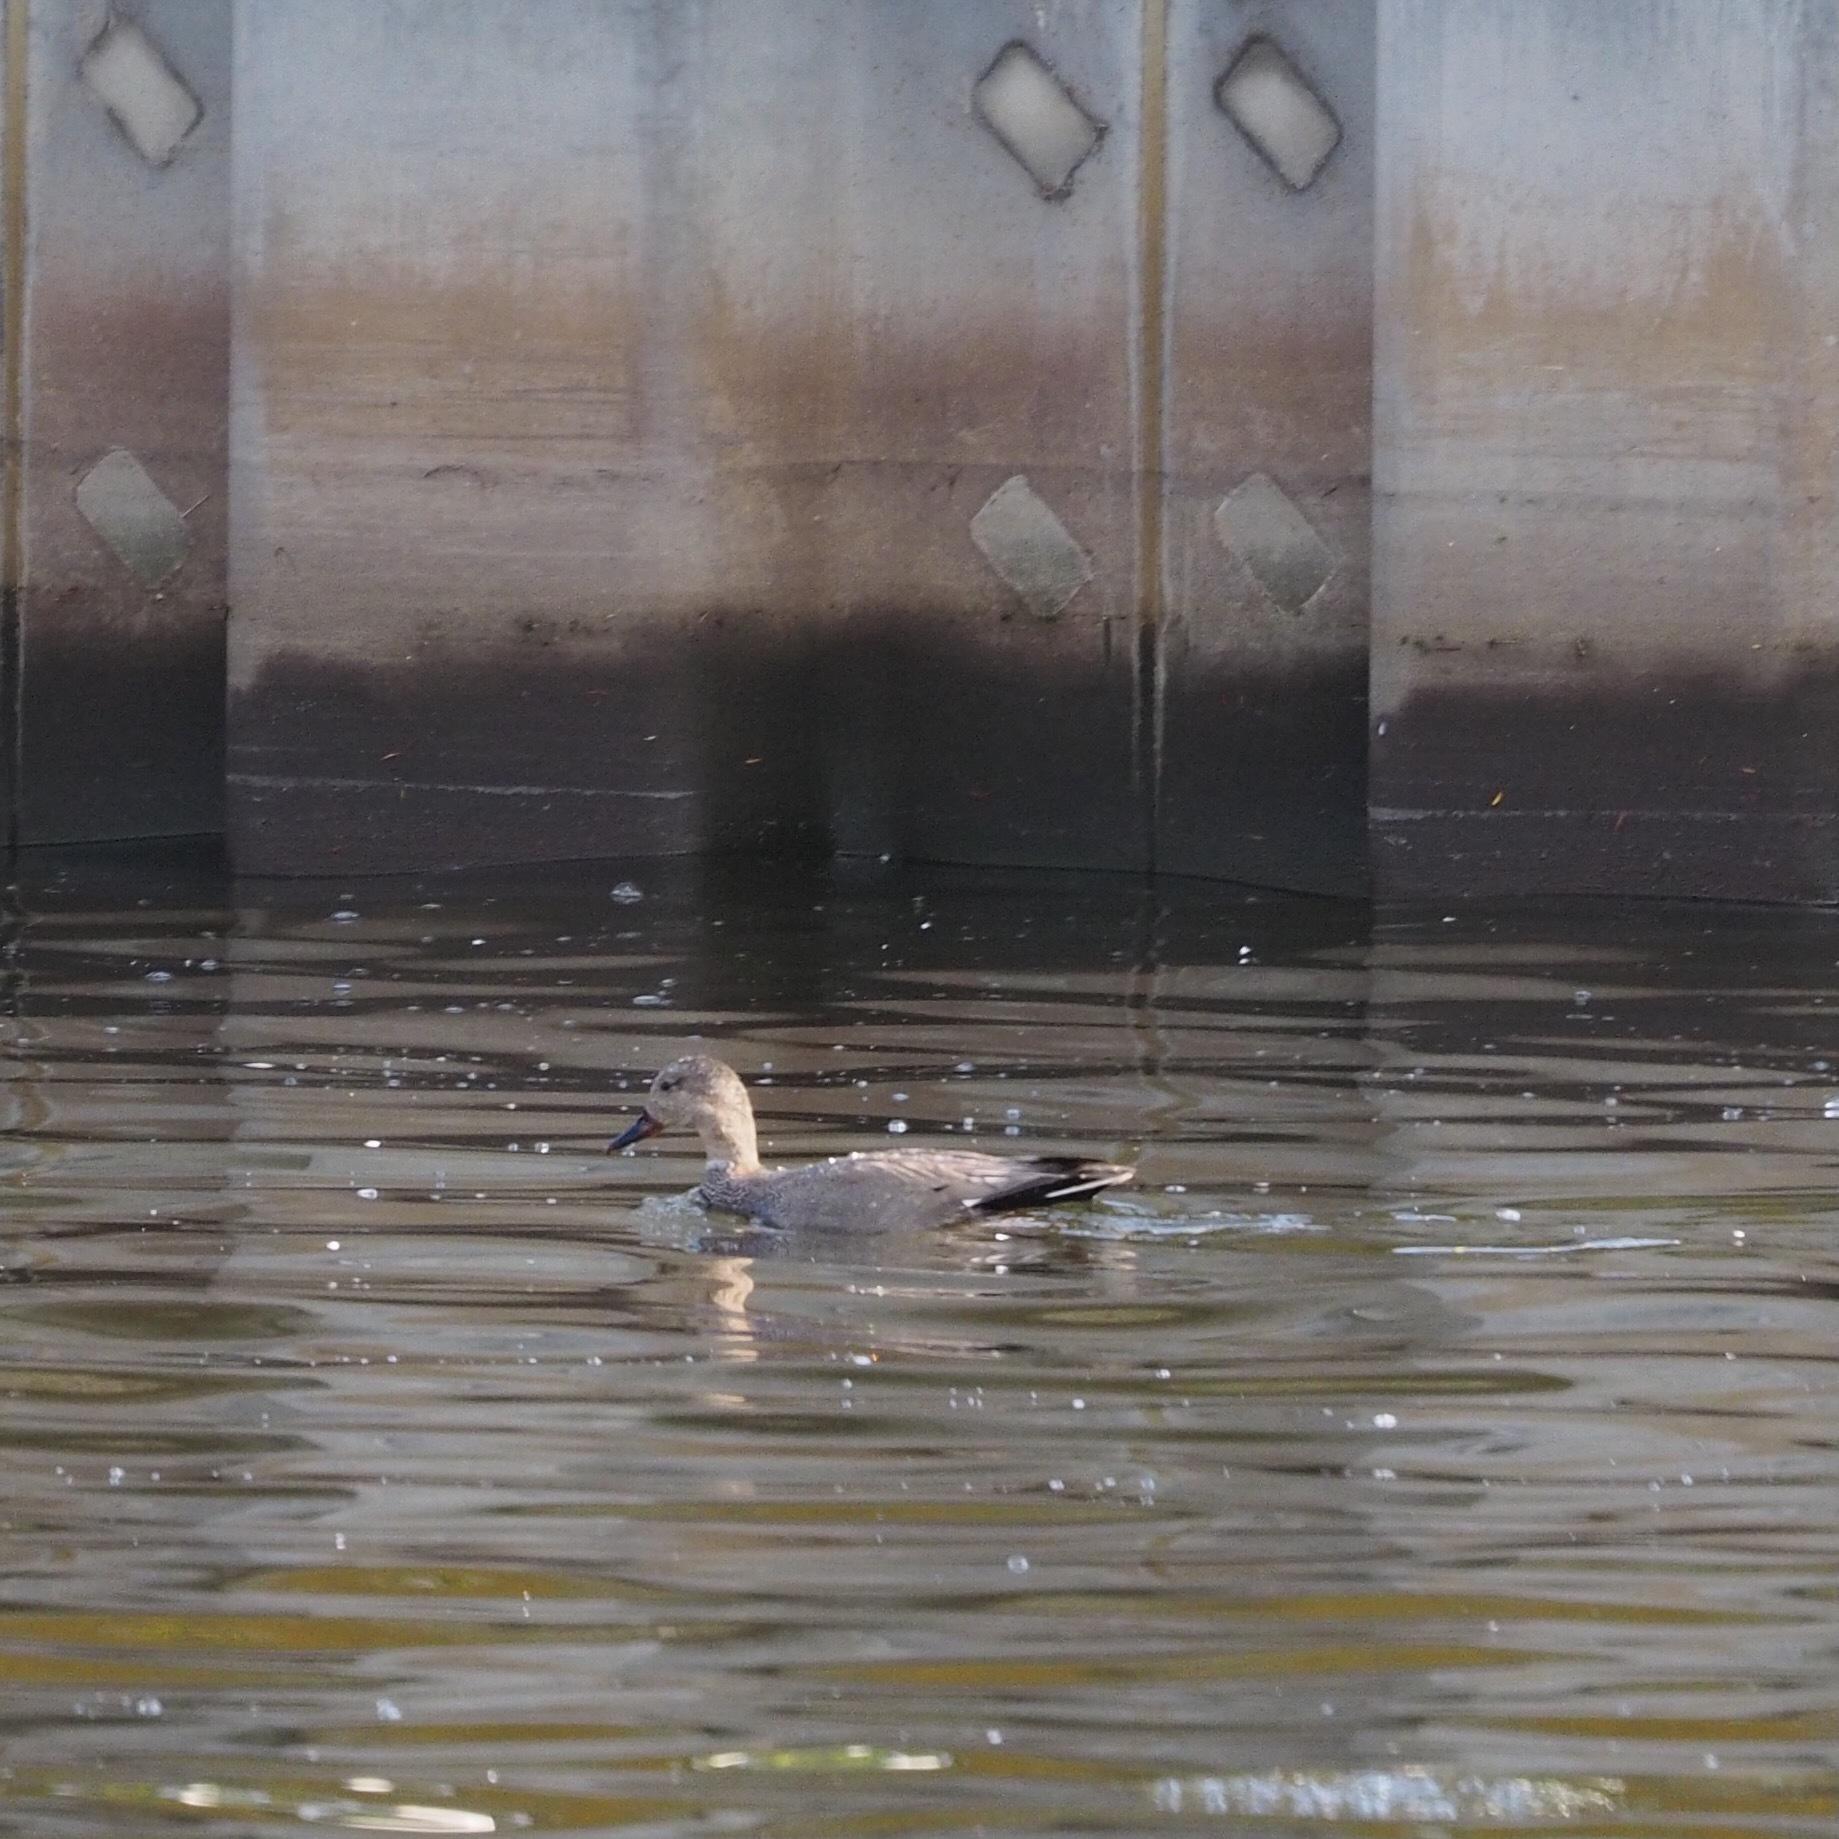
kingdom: Animalia
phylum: Chordata
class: Aves
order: Anseriformes
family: Anatidae
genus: Mareca
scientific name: Mareca strepera
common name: Gadwall
